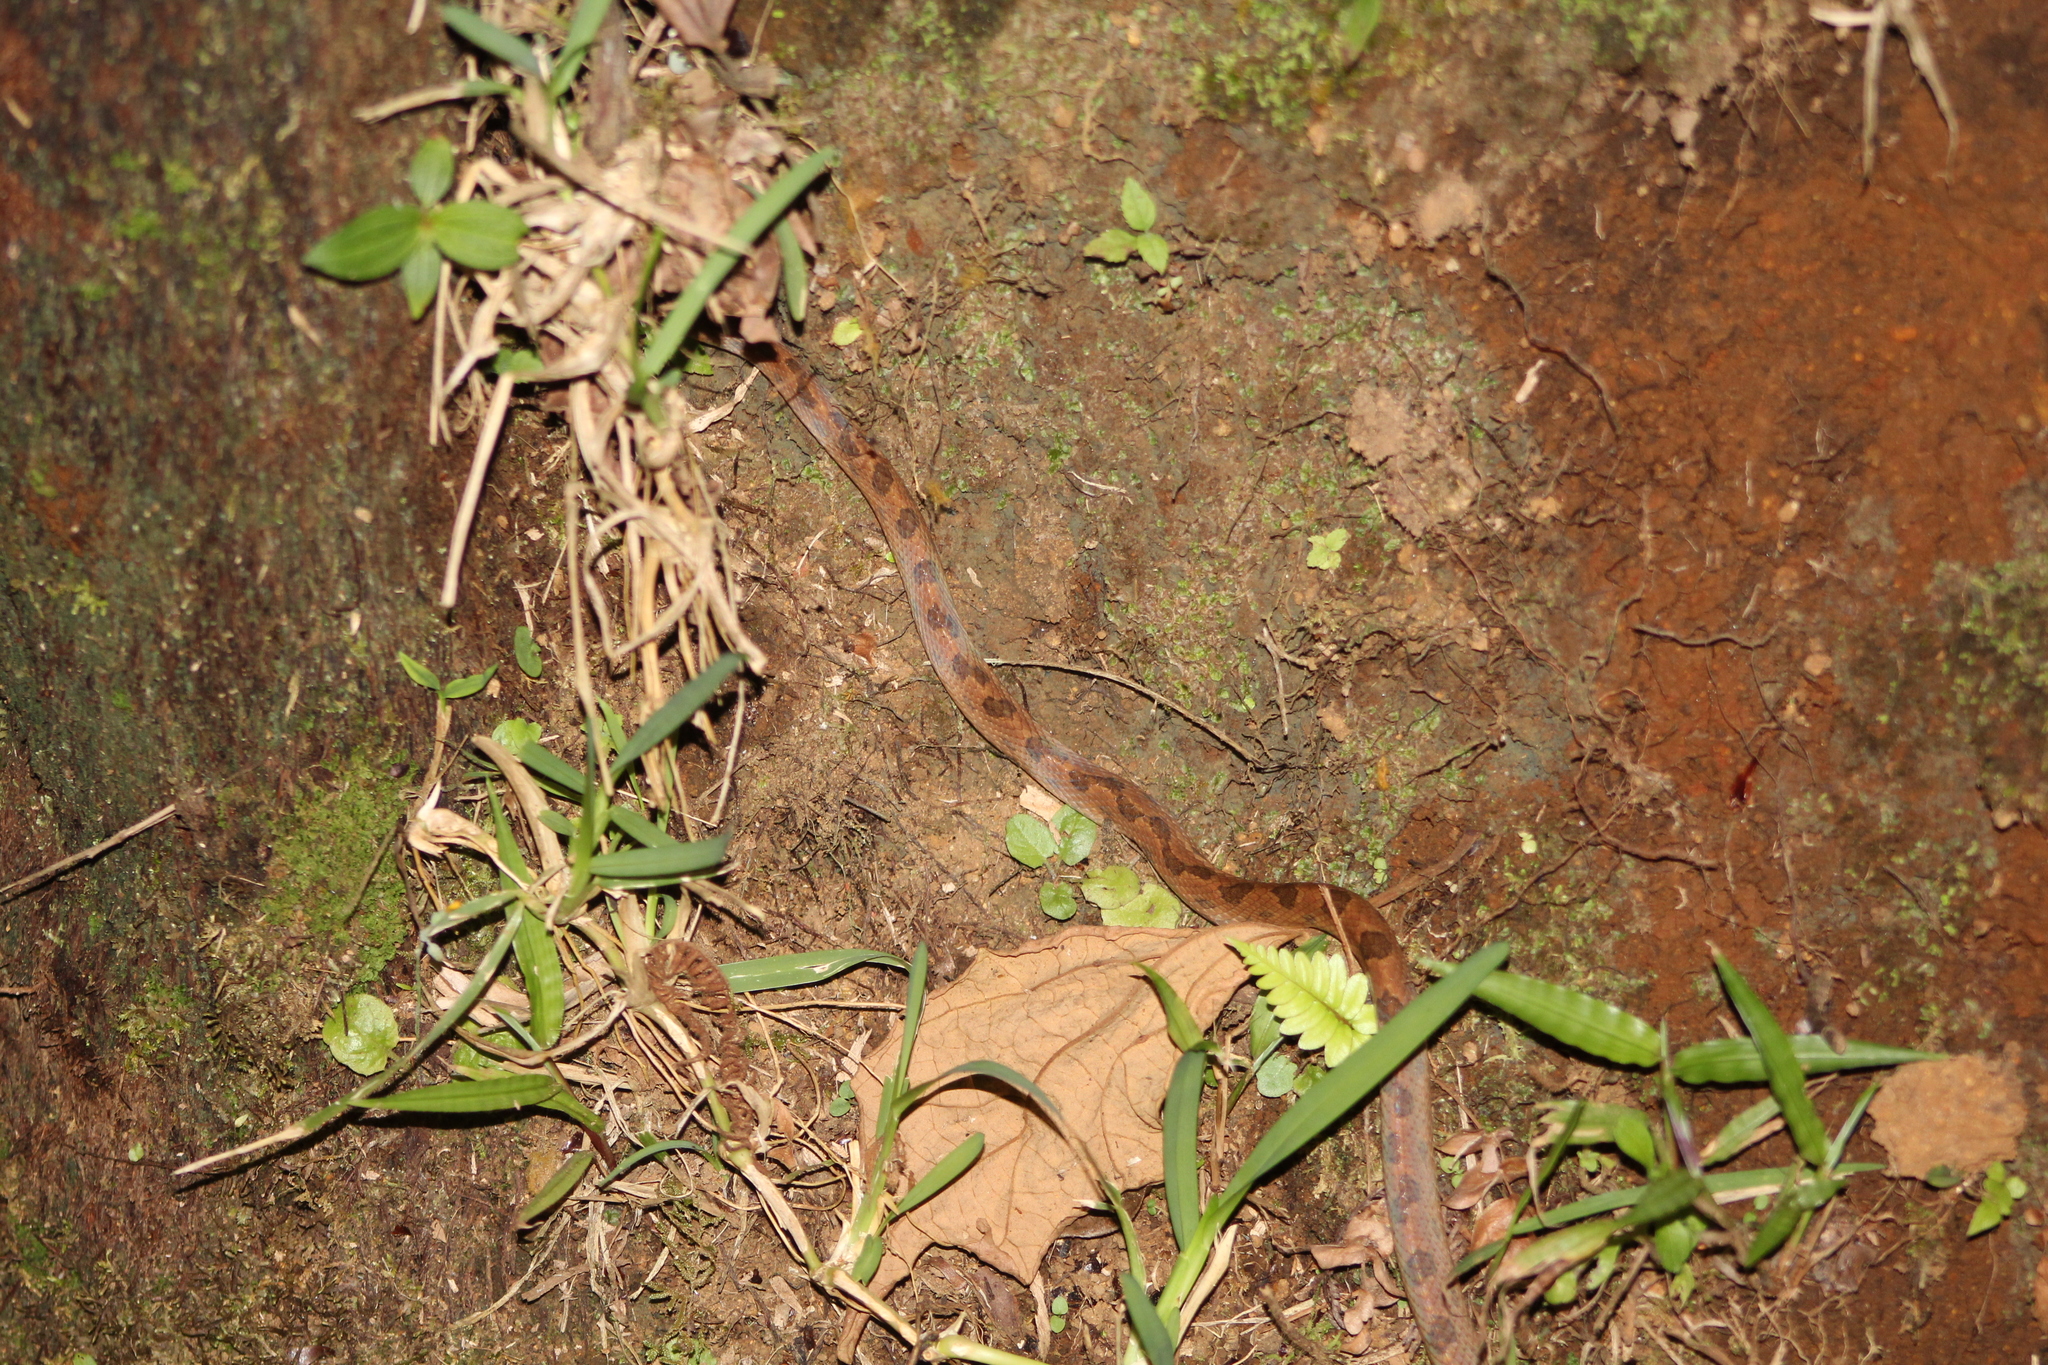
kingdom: Animalia
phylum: Chordata
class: Squamata
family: Colubridae
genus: Leptodeira
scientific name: Leptodeira ornata
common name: Northern cat-eyed snake
